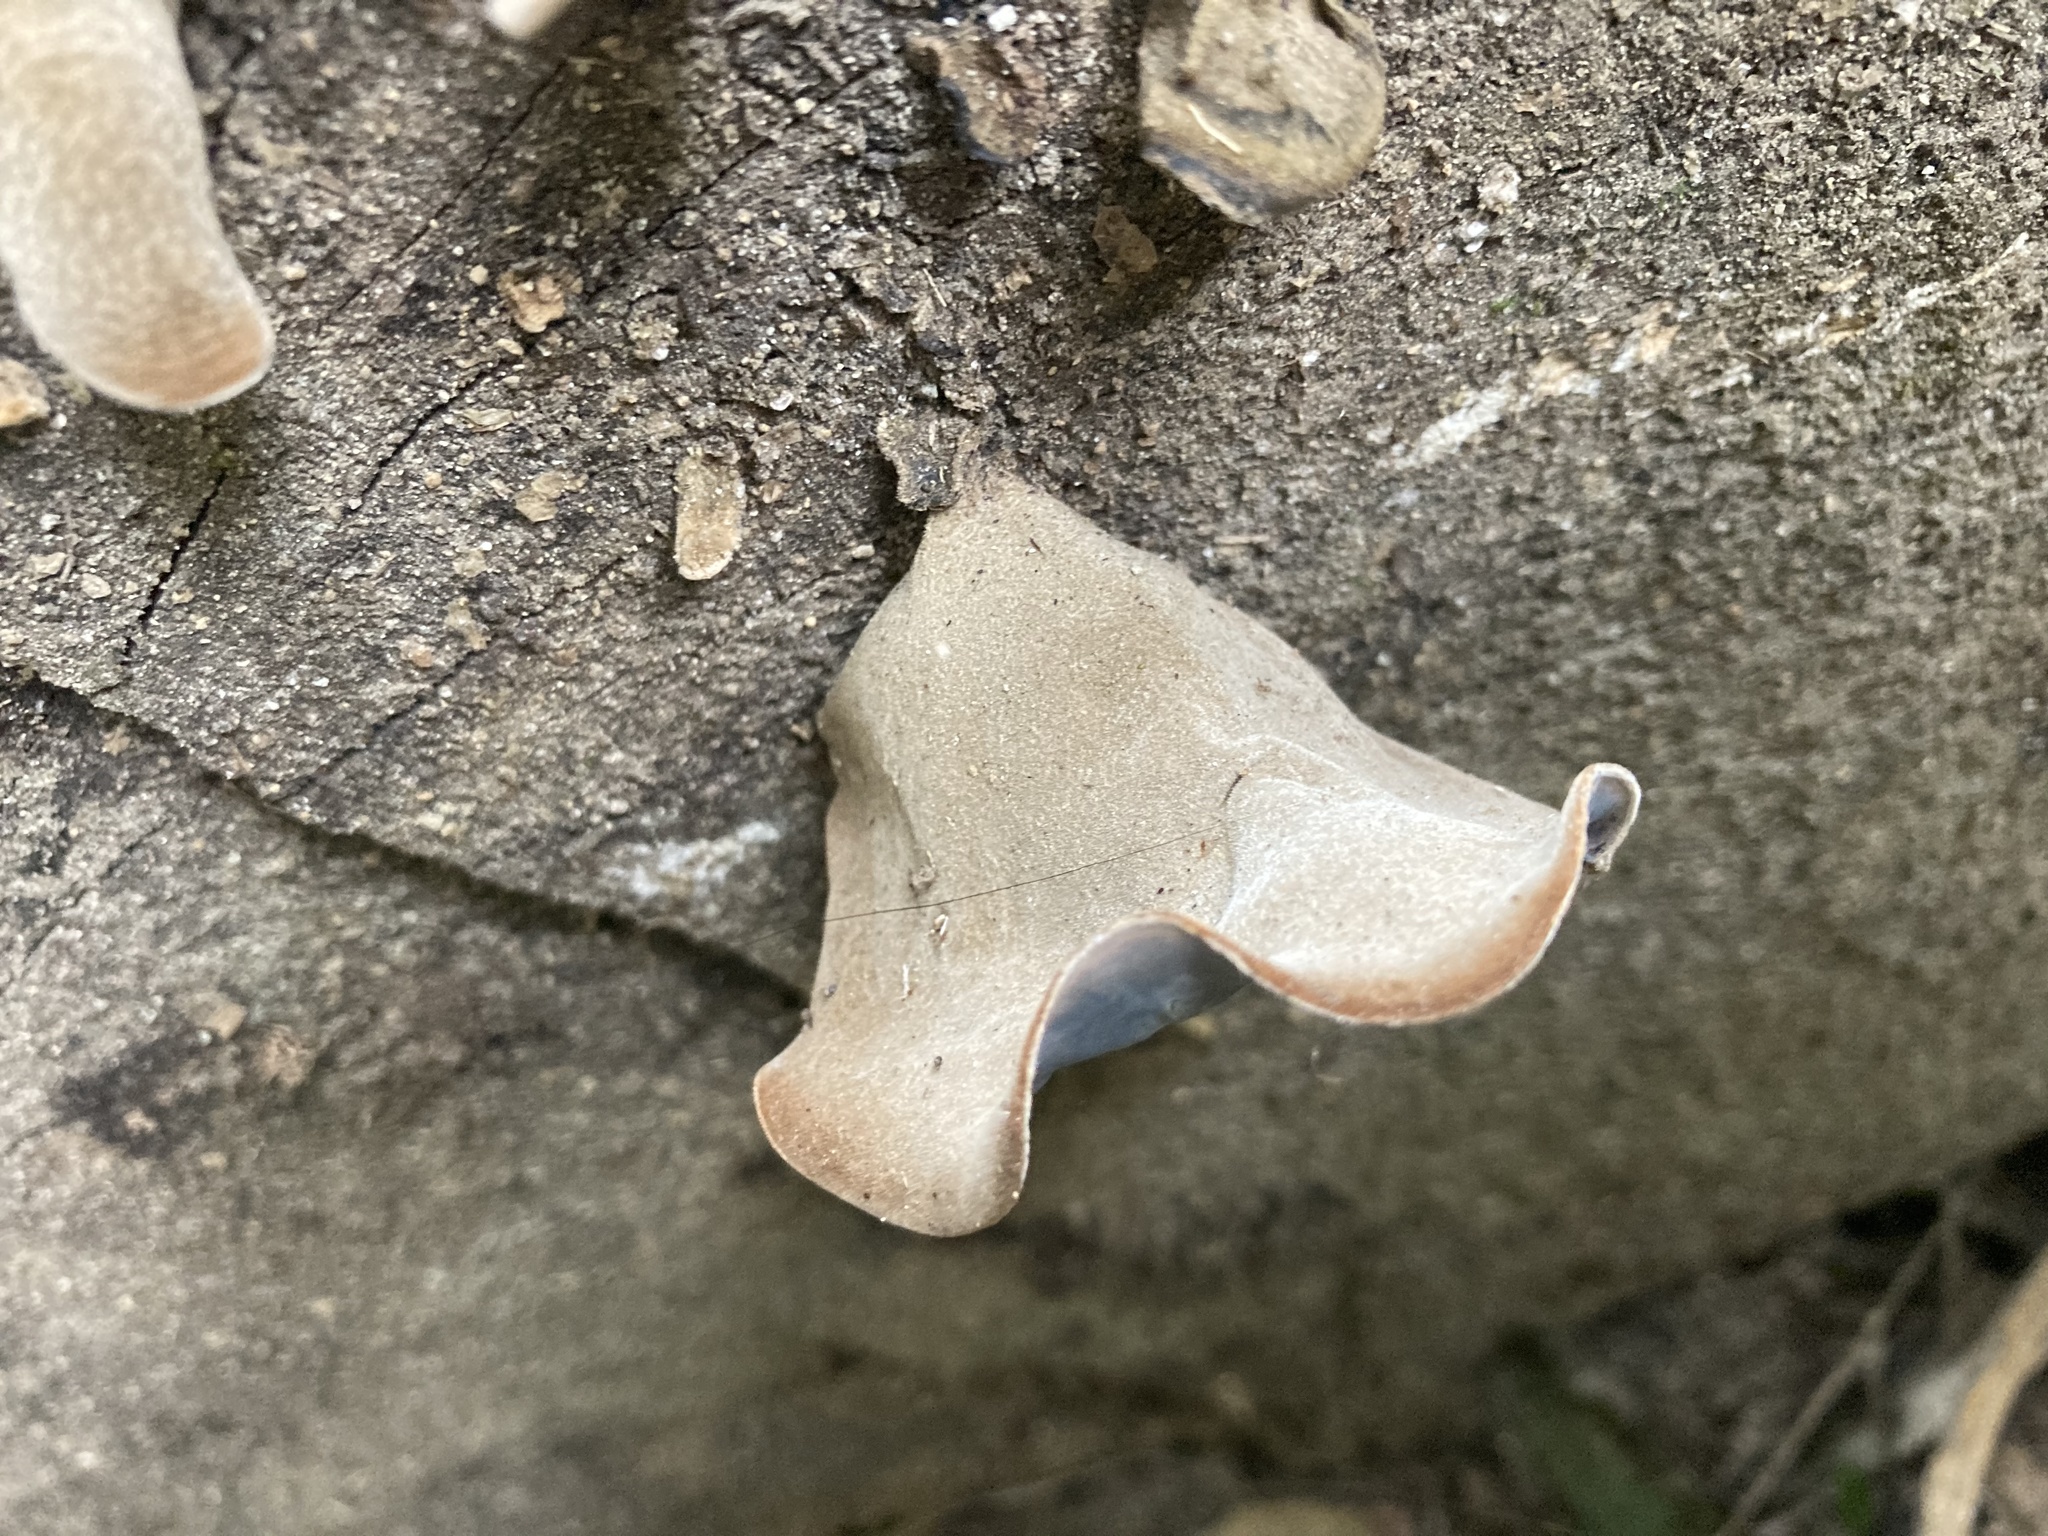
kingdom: Fungi
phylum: Basidiomycota
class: Agaricomycetes
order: Auriculariales
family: Auriculariaceae
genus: Auricularia
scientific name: Auricularia cornea
